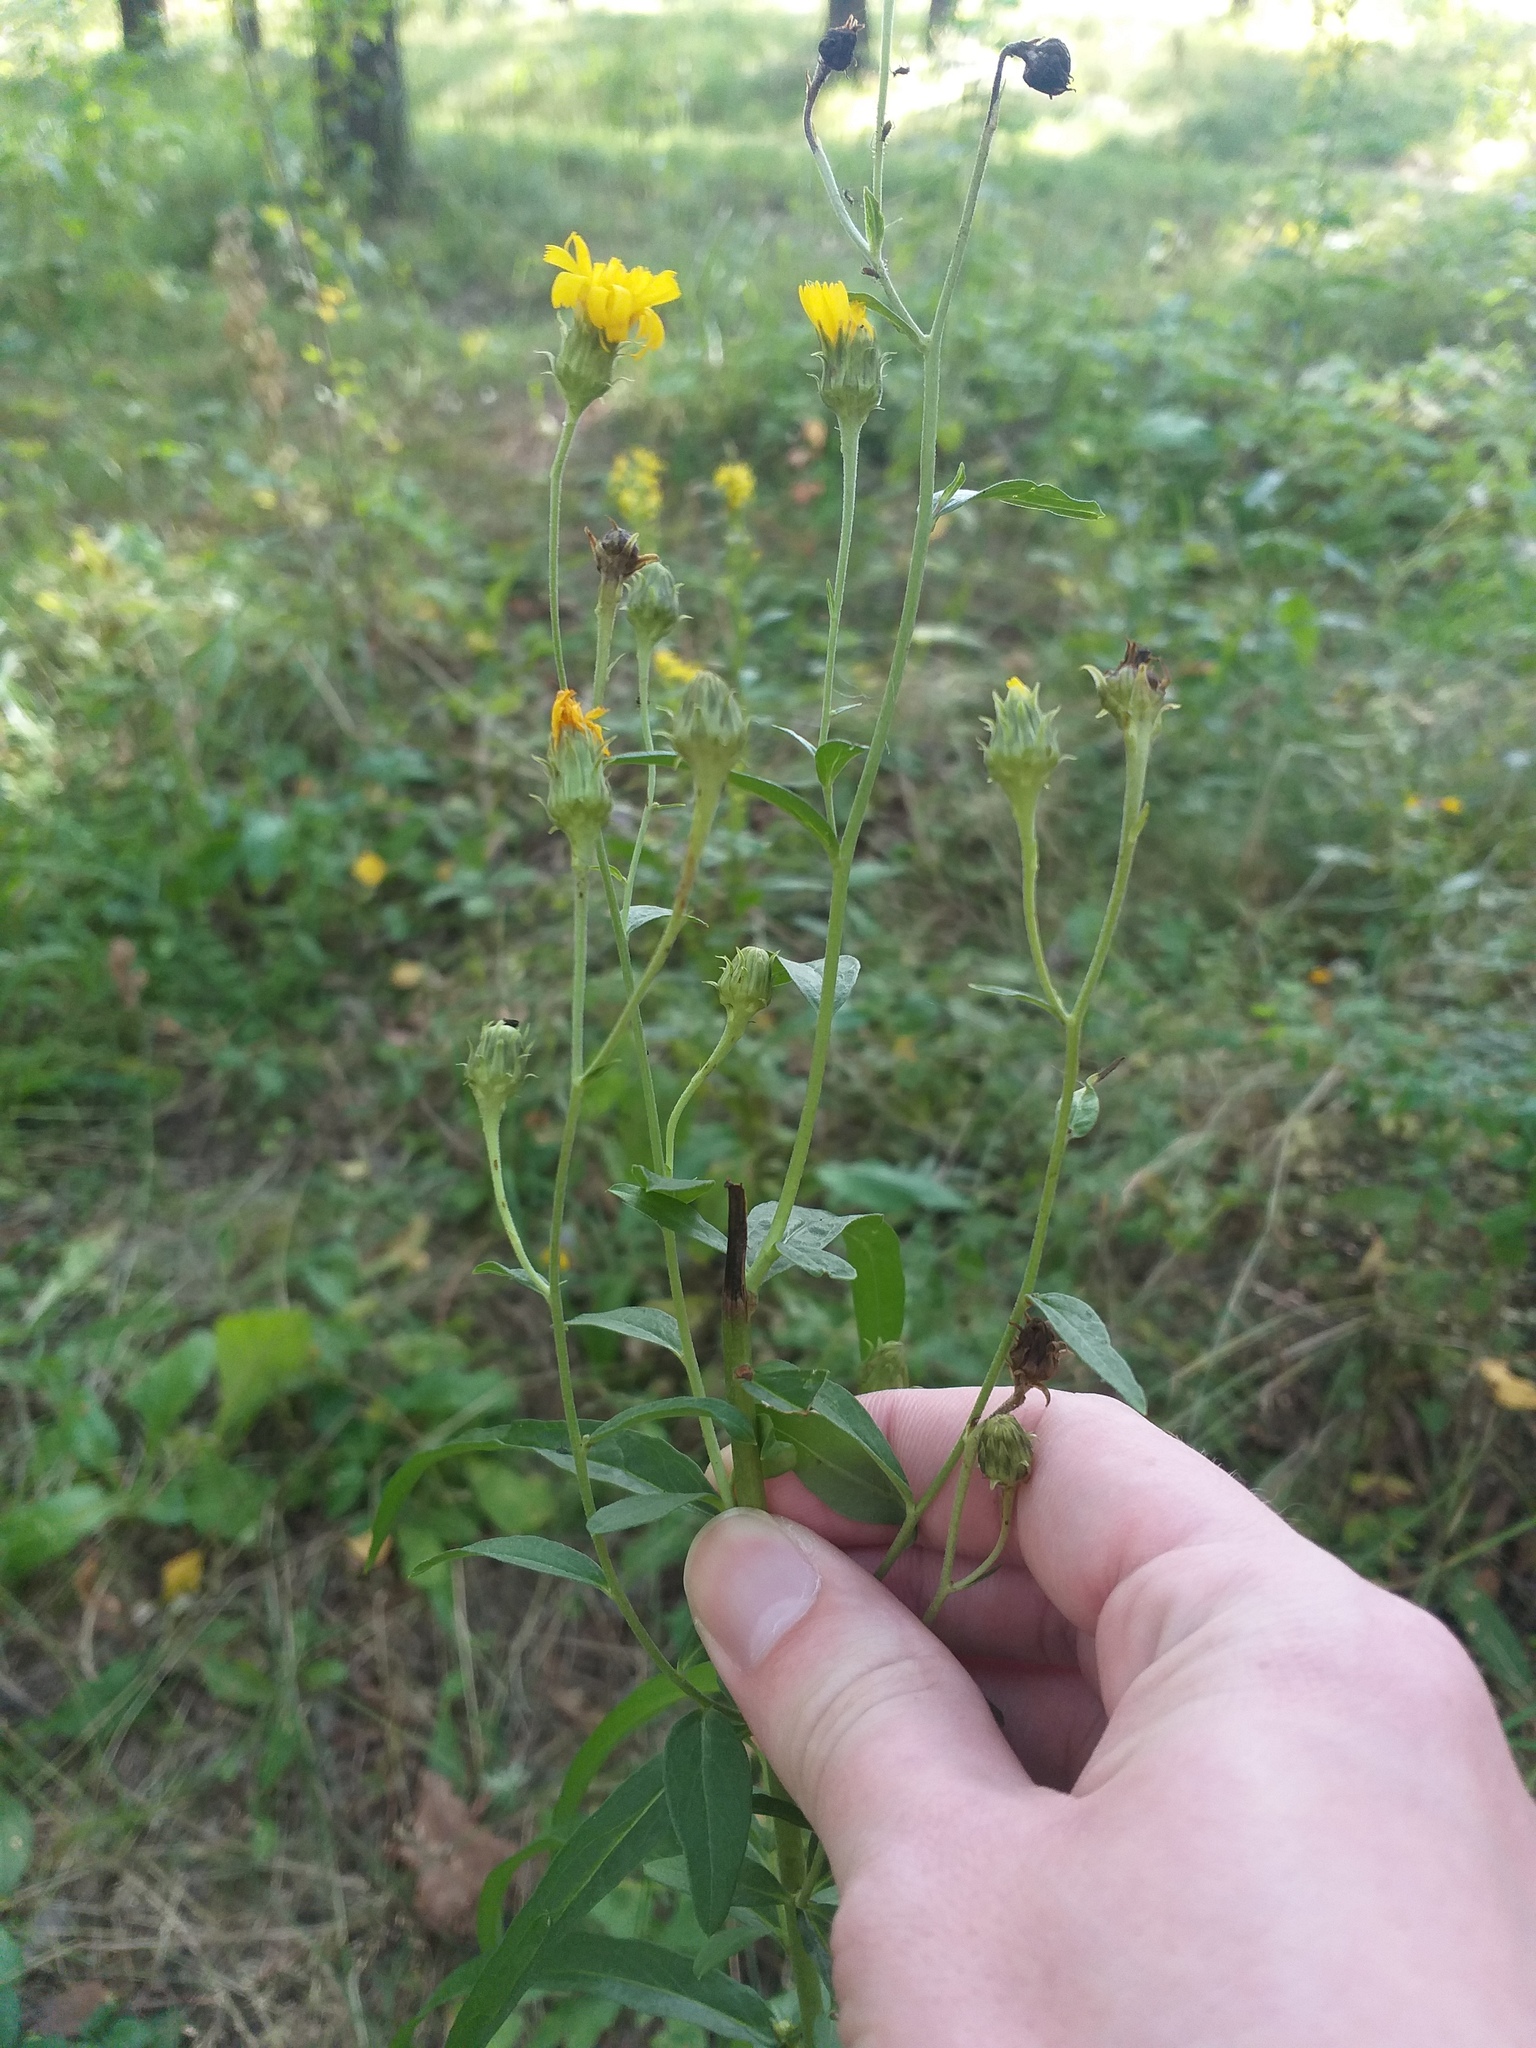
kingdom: Plantae
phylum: Tracheophyta
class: Magnoliopsida
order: Asterales
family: Asteraceae
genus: Hieracium
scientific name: Hieracium umbellatum
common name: Northern hawkweed
